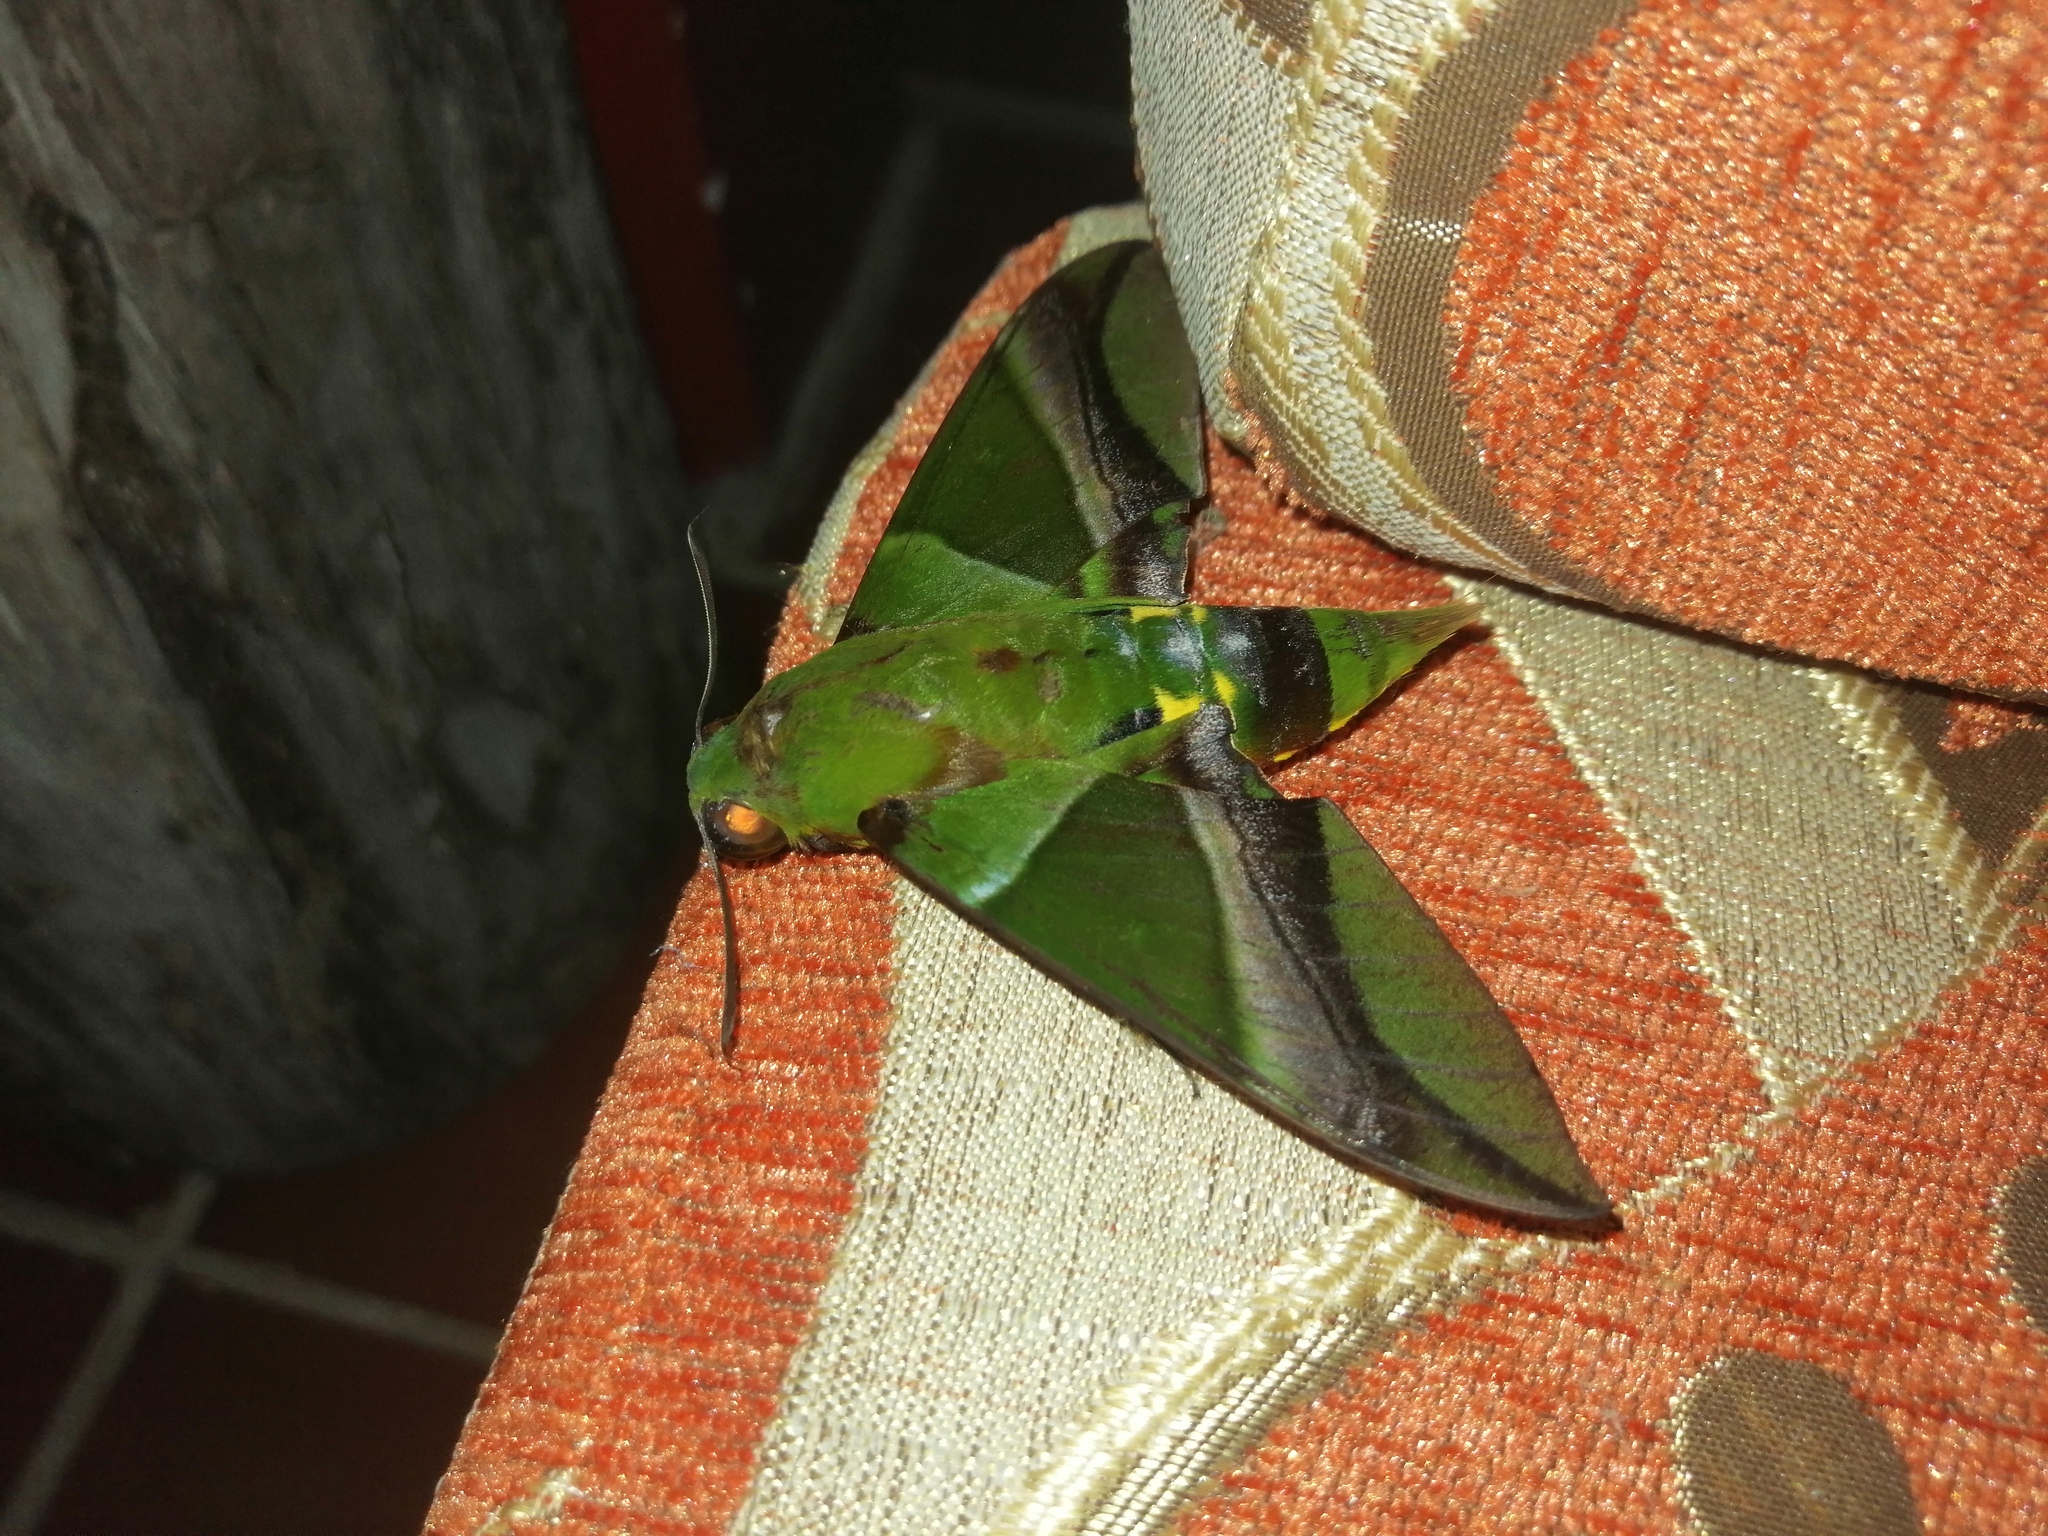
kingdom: Animalia
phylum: Arthropoda
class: Insecta
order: Lepidoptera
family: Sphingidae
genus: Oryba
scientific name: Oryba kadeni
